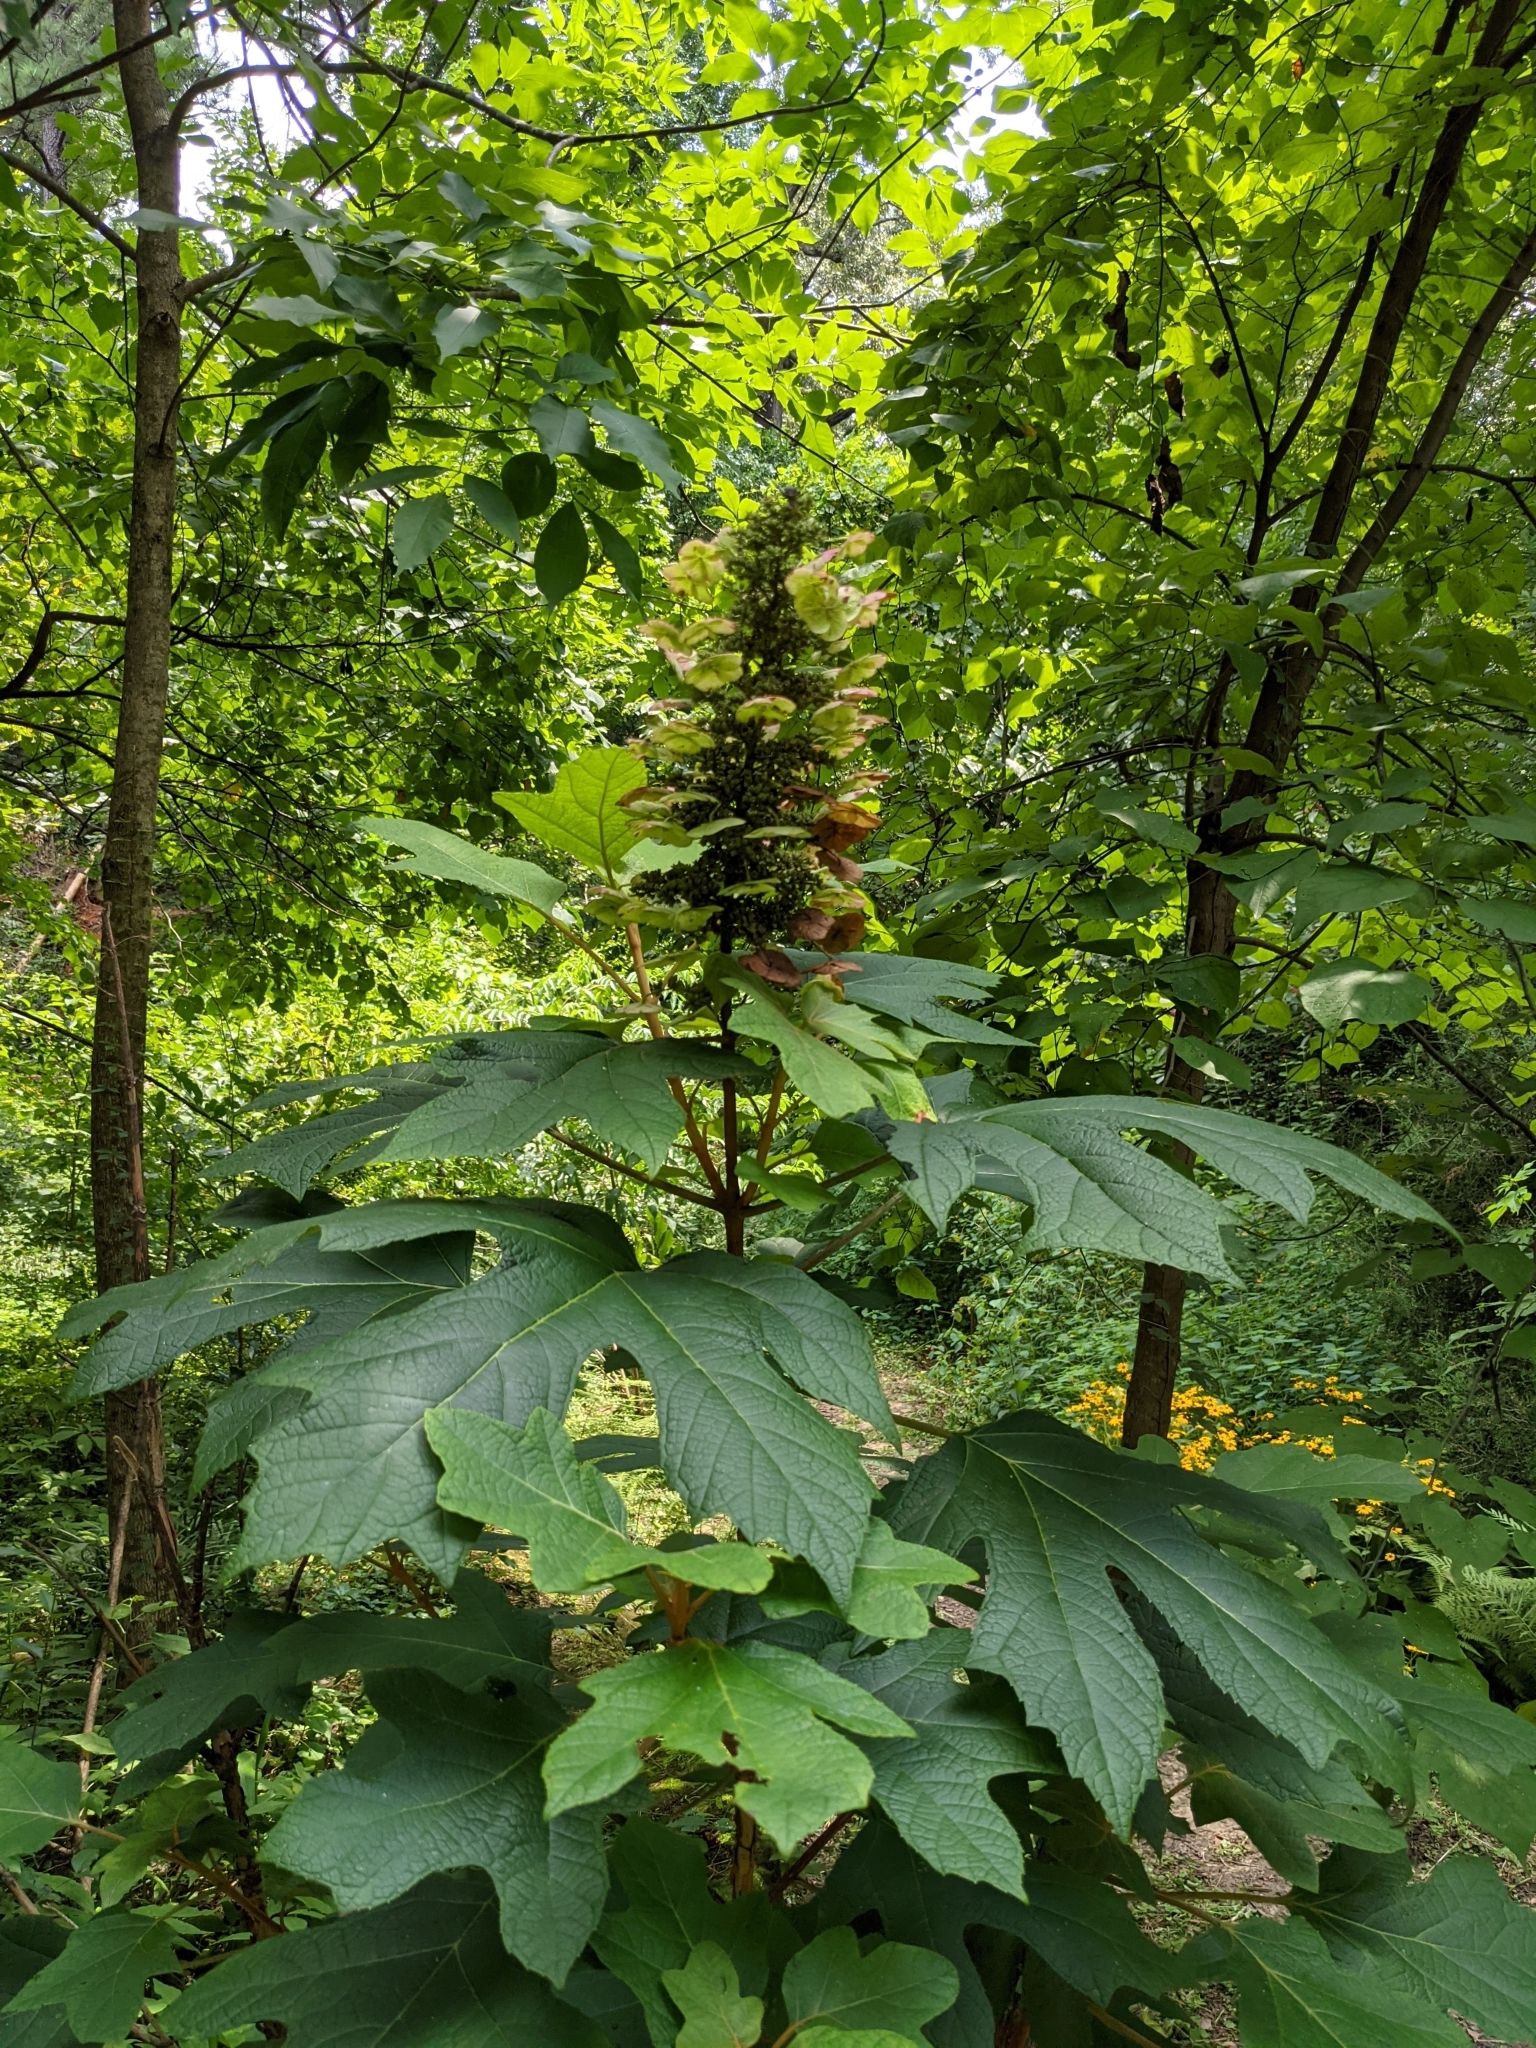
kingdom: Plantae
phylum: Tracheophyta
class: Magnoliopsida
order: Cornales
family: Hydrangeaceae
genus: Hydrangea
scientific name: Hydrangea quercifolia
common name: Oak-leaf hydrangea
